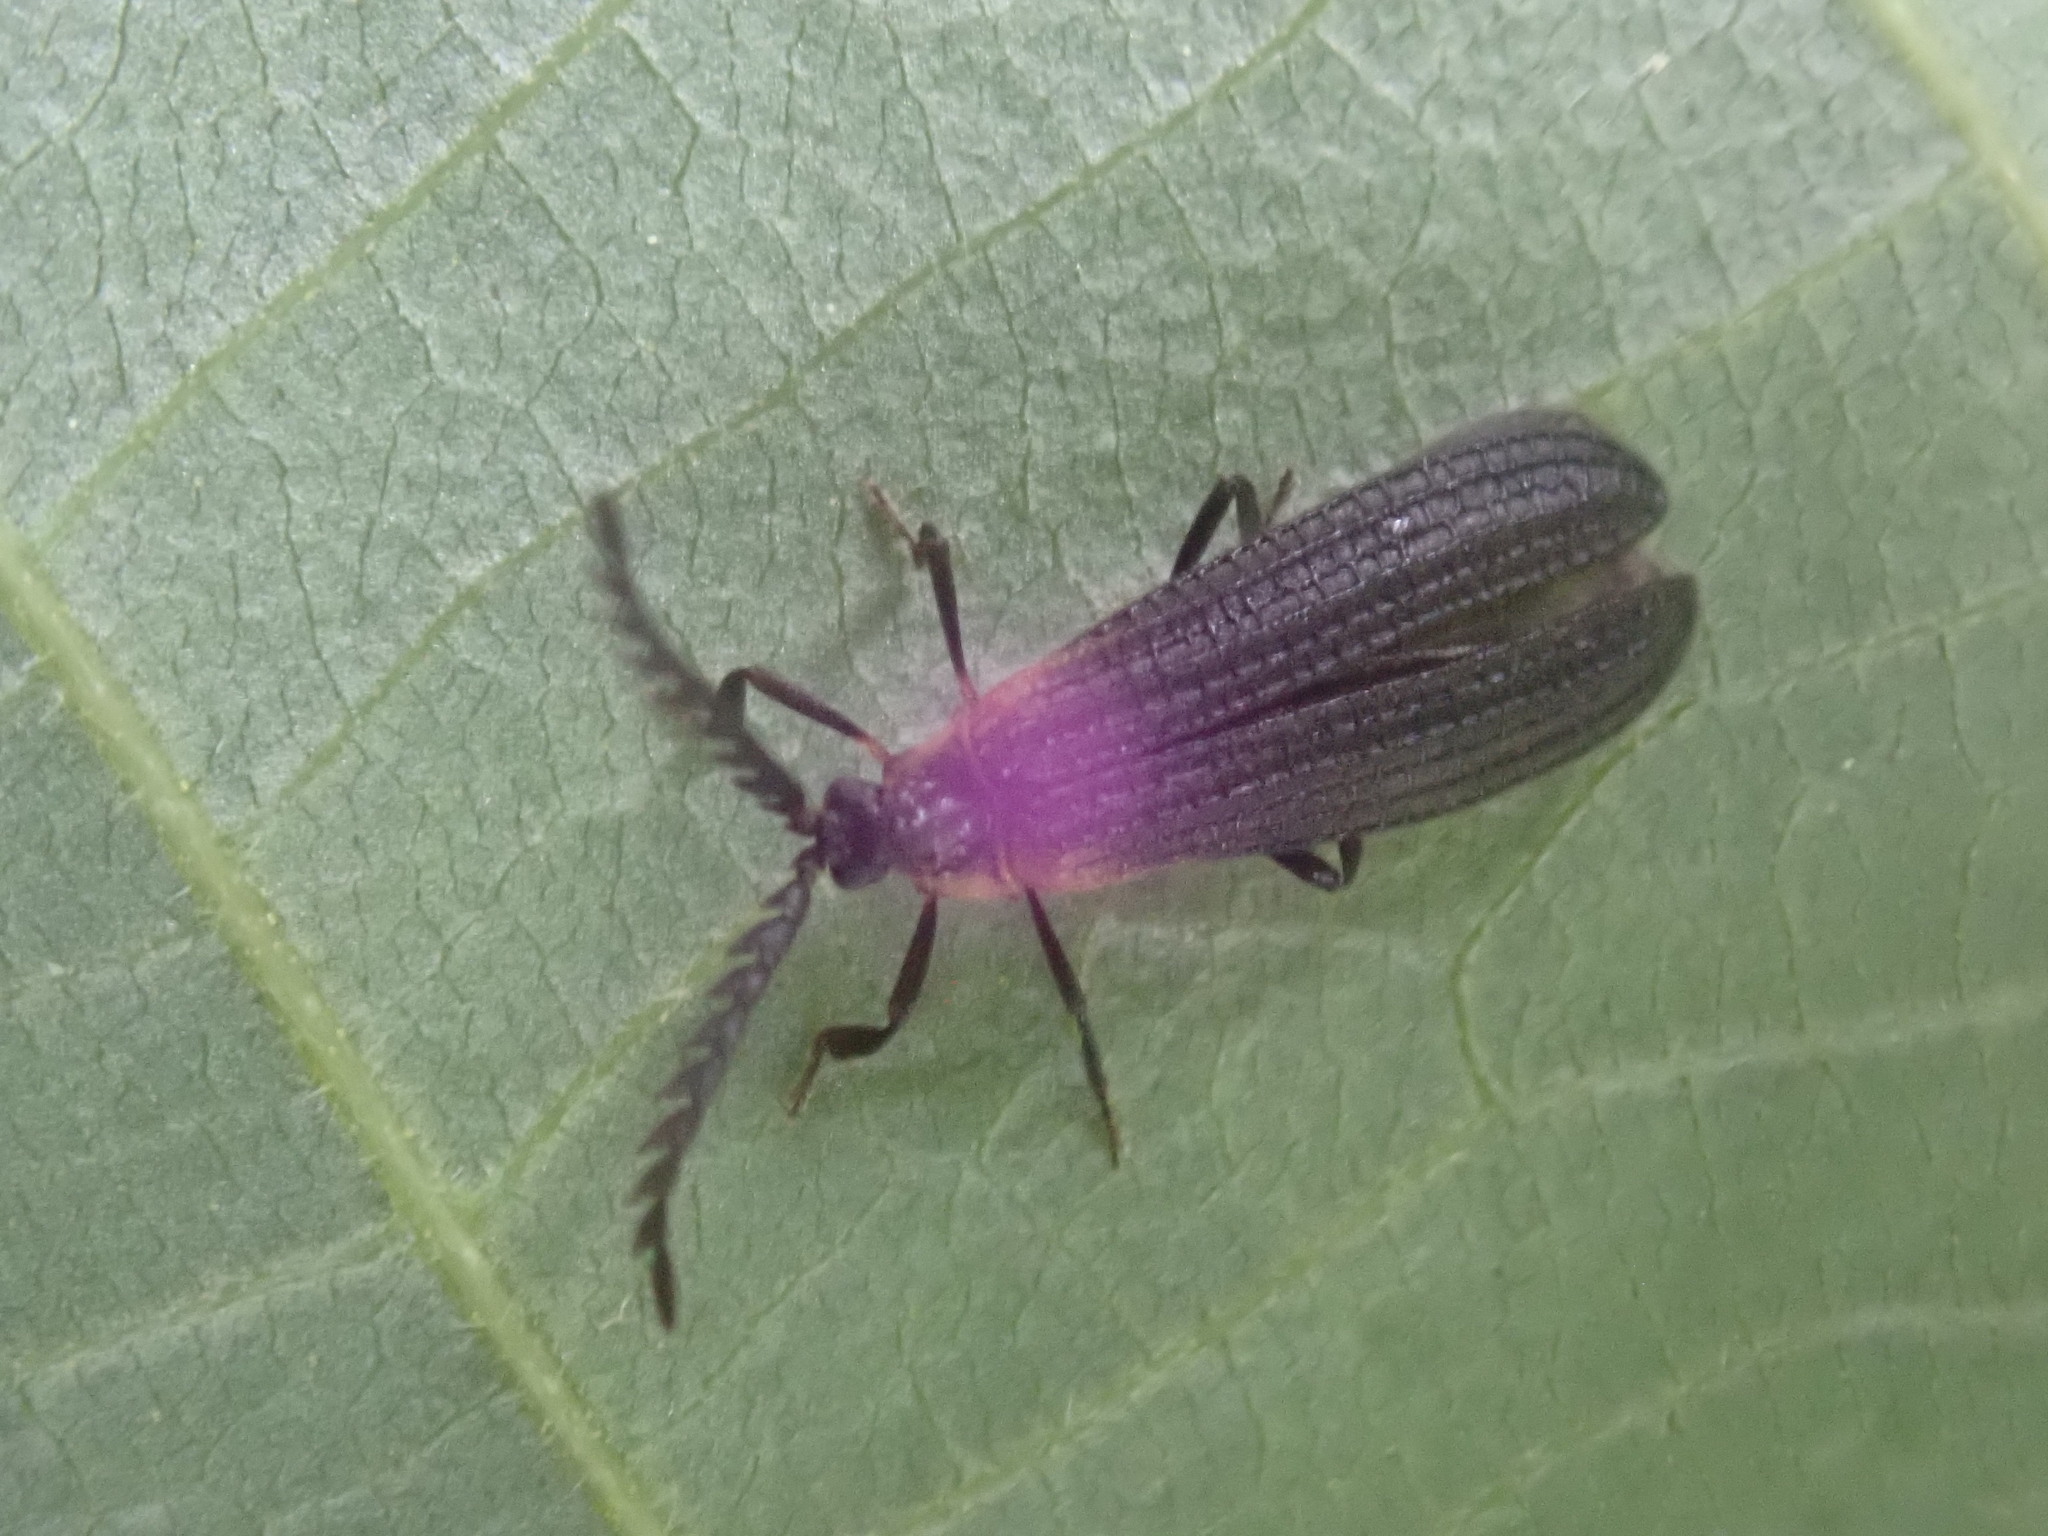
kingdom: Animalia
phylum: Arthropoda
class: Insecta
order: Coleoptera
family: Lycidae
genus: Leptoceletes
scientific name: Leptoceletes basalis
